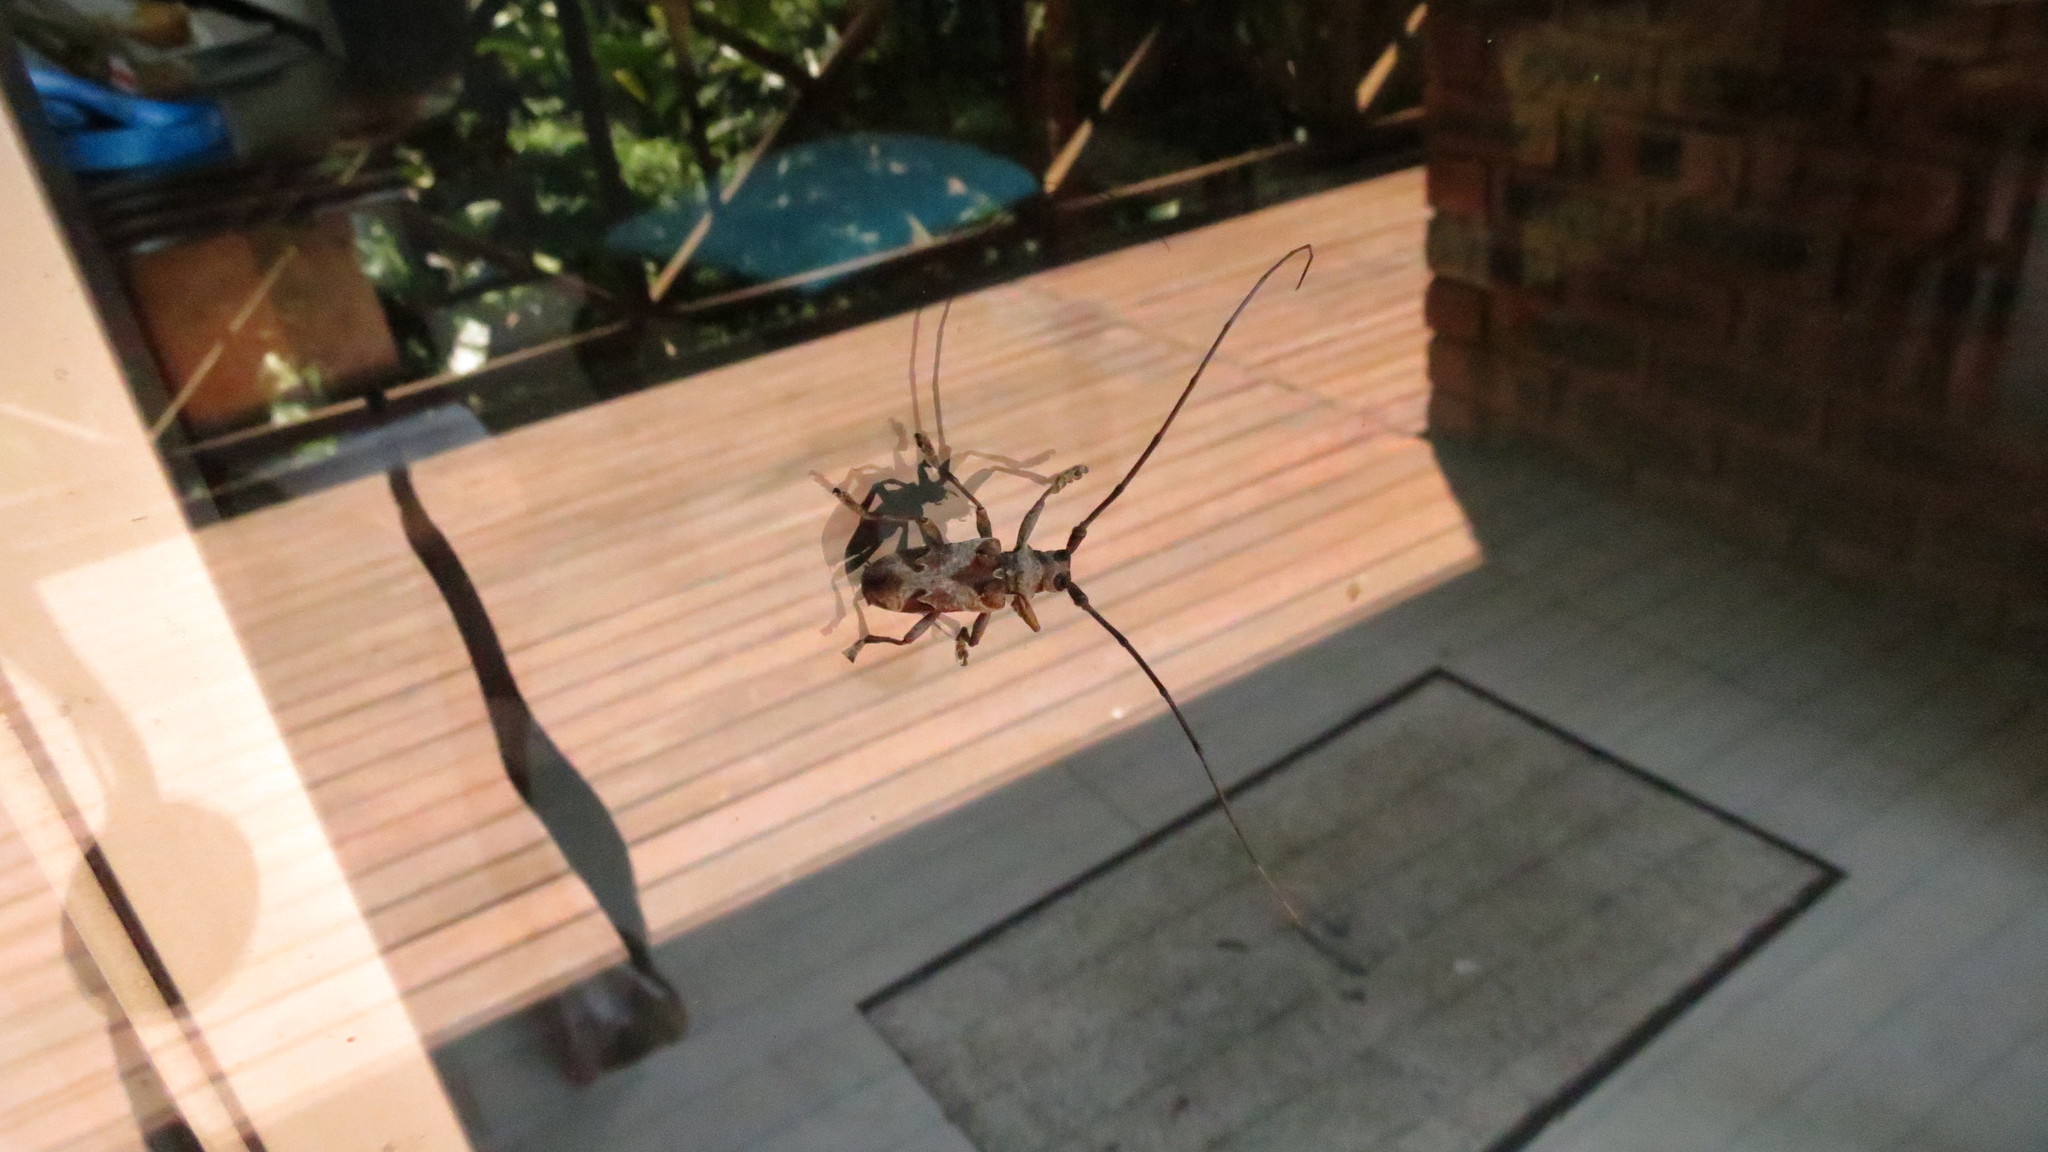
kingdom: Animalia
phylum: Arthropoda
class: Insecta
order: Coleoptera
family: Cerambycidae
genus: Monochamus
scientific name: Monochamus spectabilis
